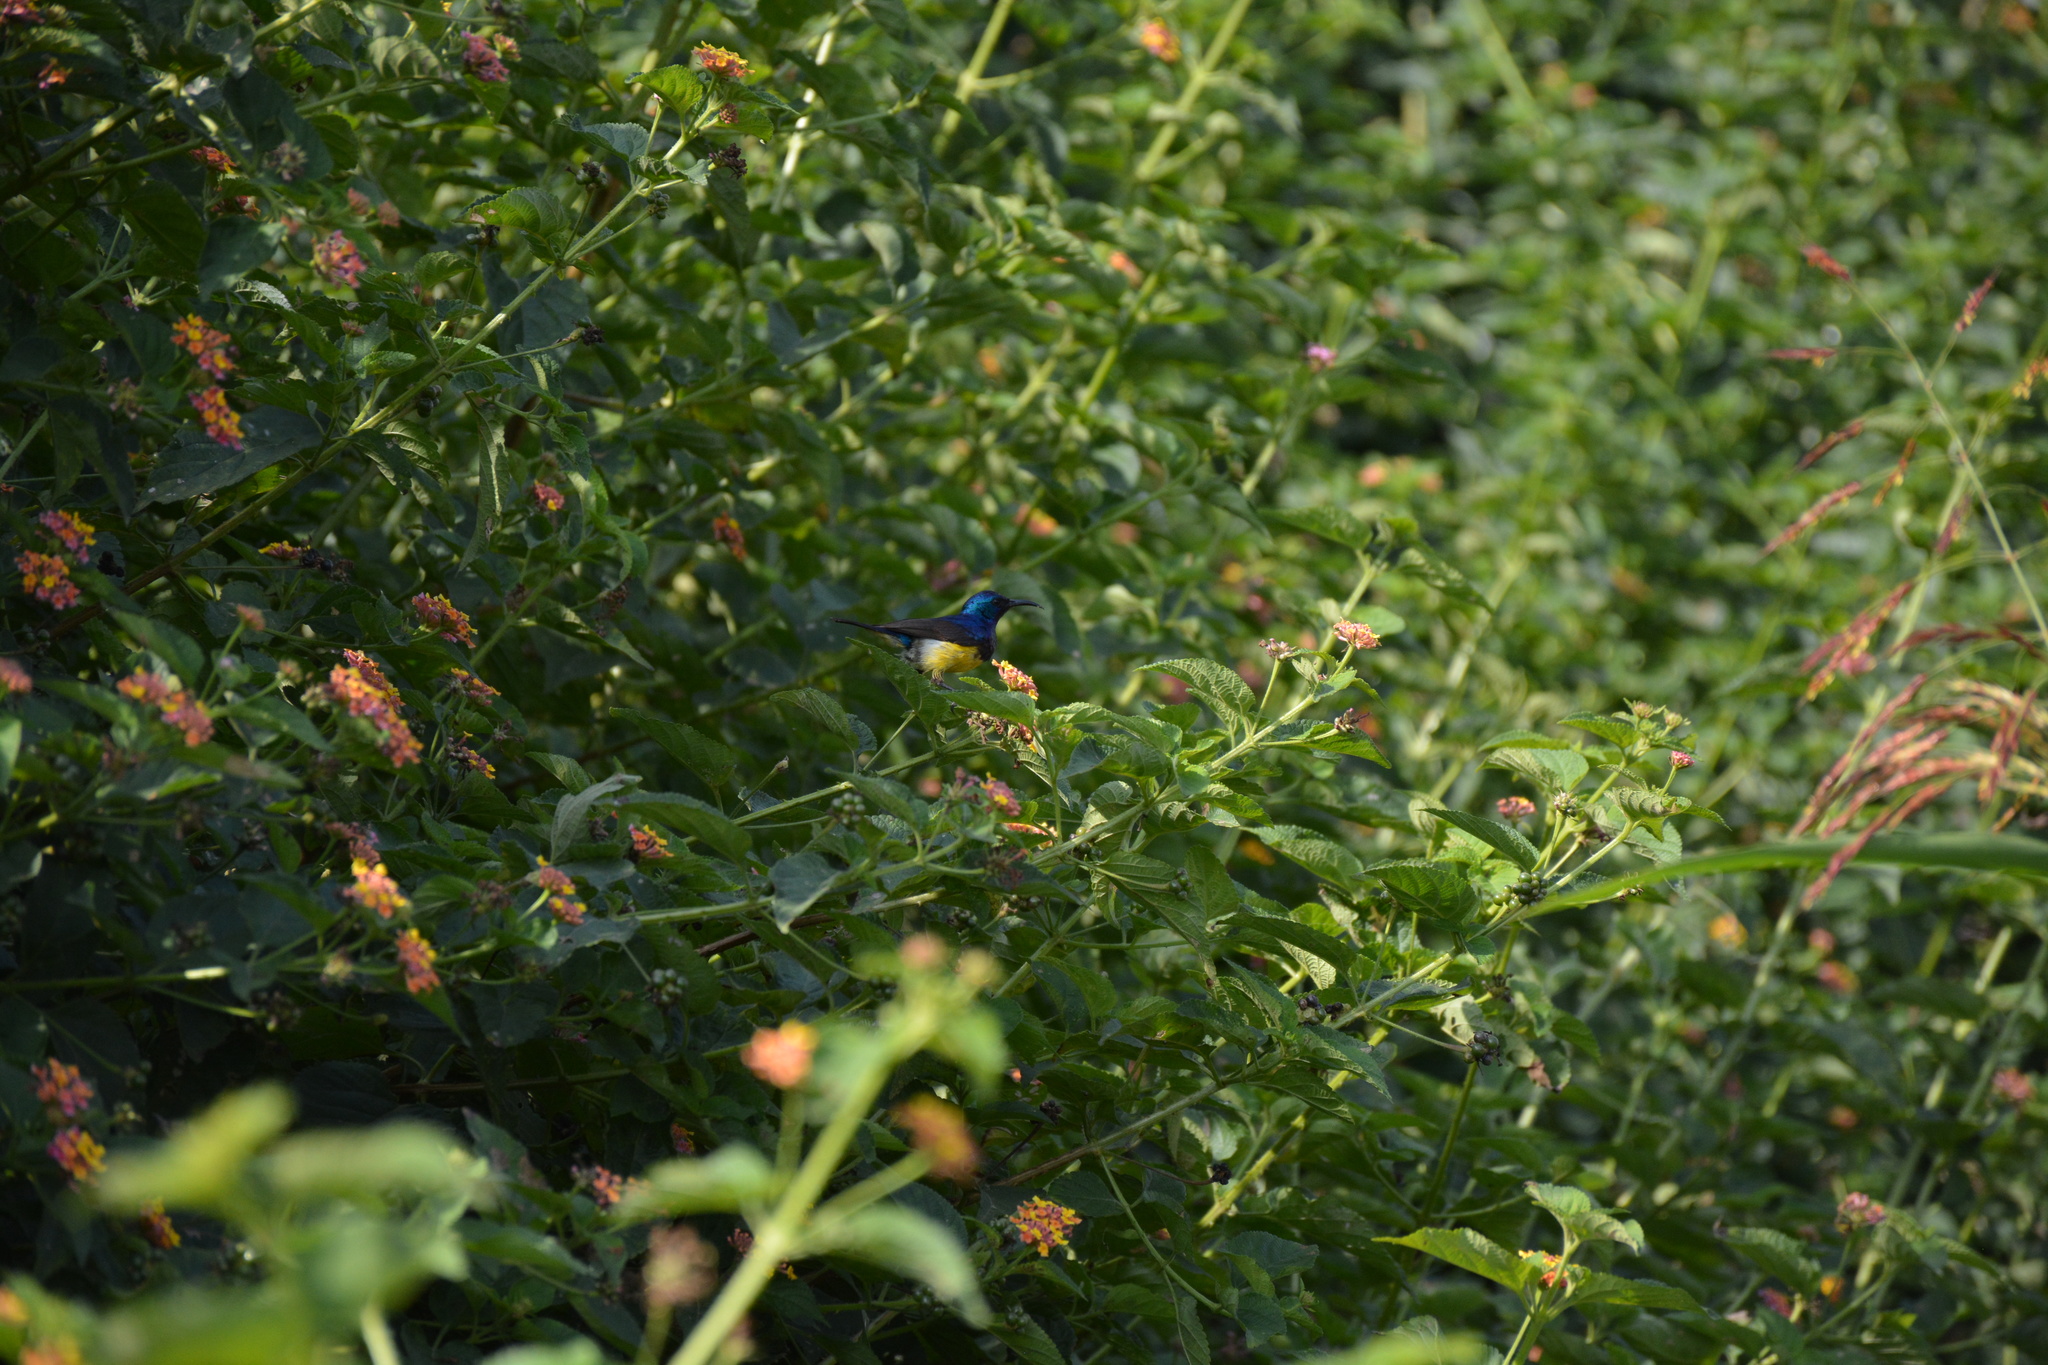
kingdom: Animalia
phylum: Chordata
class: Aves
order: Passeriformes
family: Nectariniidae
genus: Cinnyris
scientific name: Cinnyris venustus
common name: Variable sunbird
